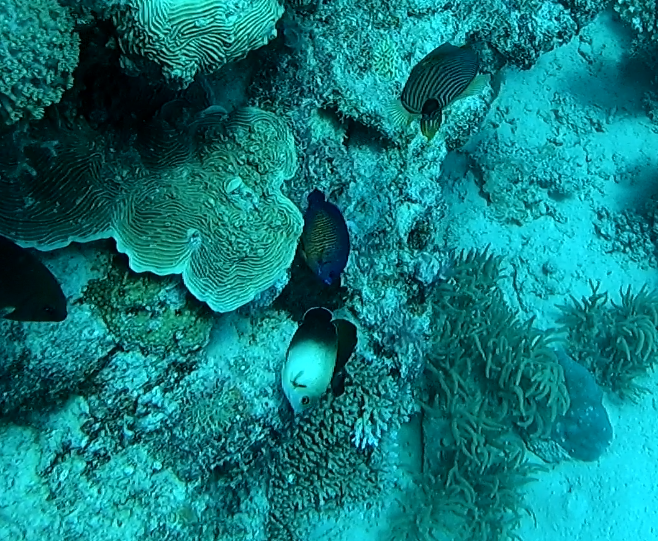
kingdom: Animalia
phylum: Chordata
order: Perciformes
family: Pomacanthidae
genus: Centropyge
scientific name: Centropyge vrolikii
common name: Pearlscale angelfish
